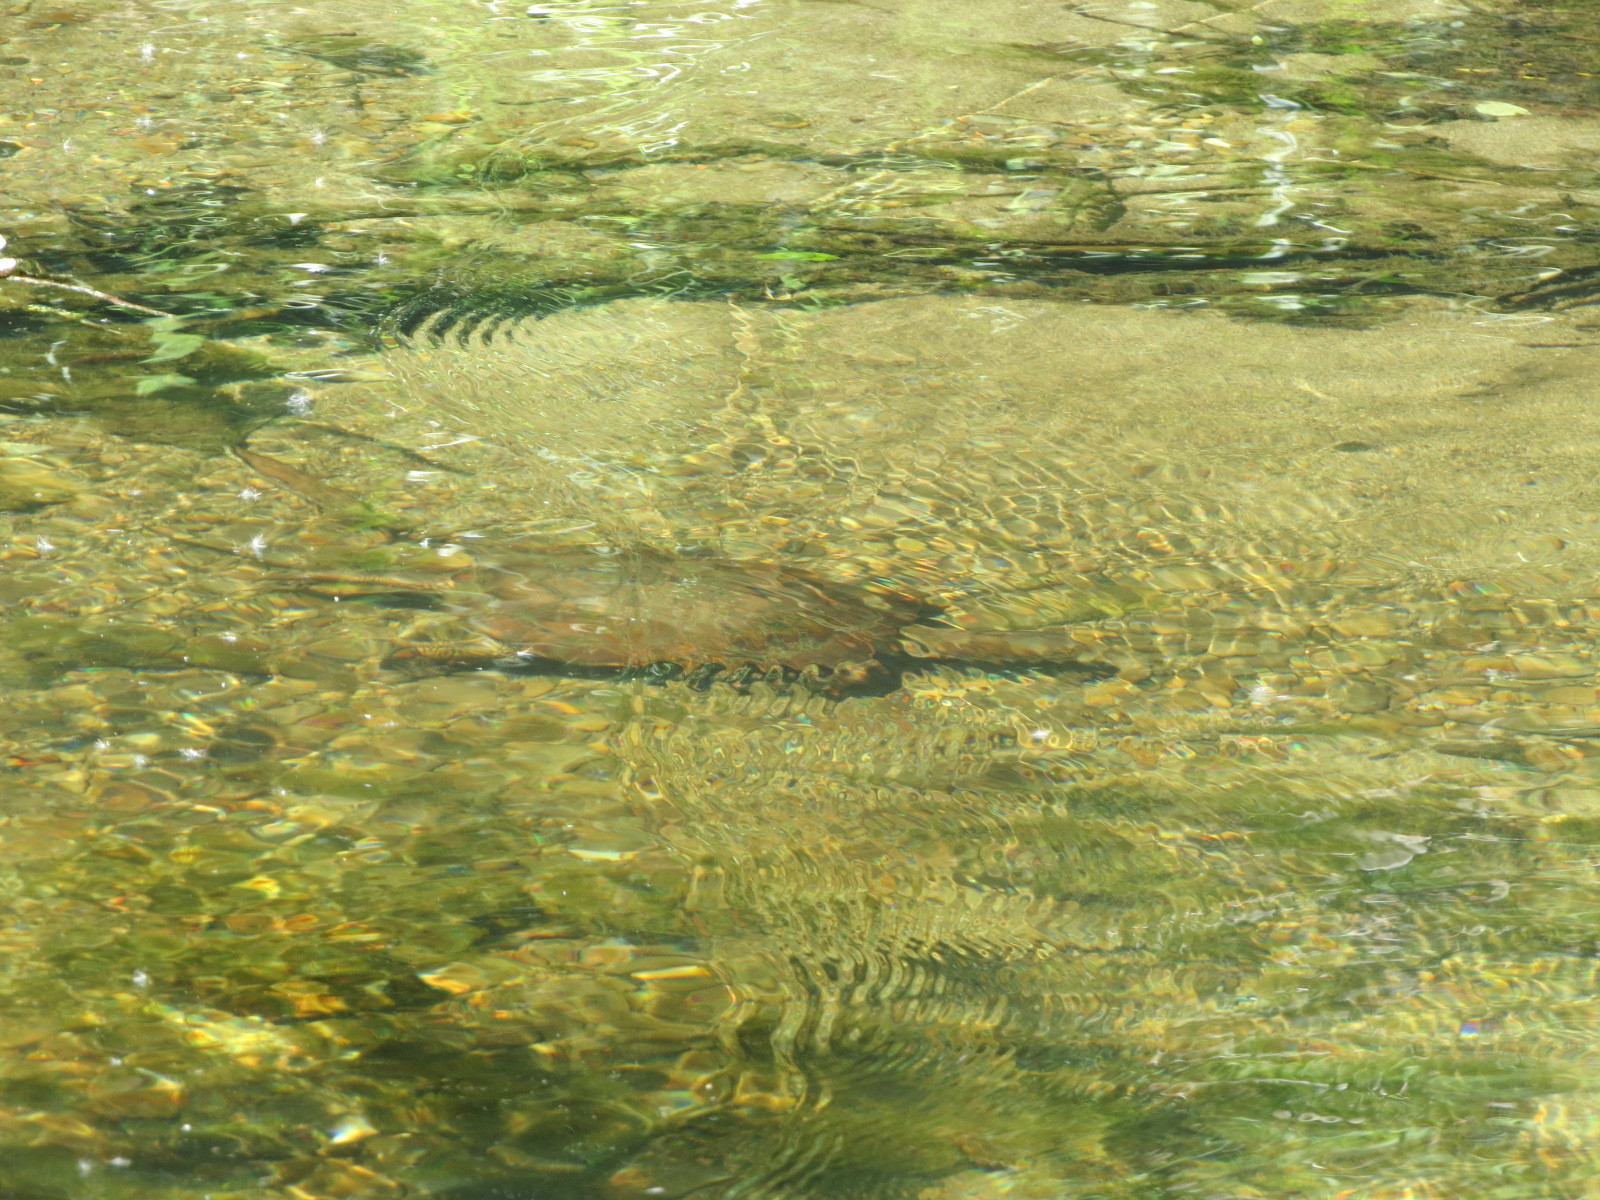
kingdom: Animalia
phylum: Chordata
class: Testudines
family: Emydidae
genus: Actinemys
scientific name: Actinemys marmorata
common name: Western pond turtle
